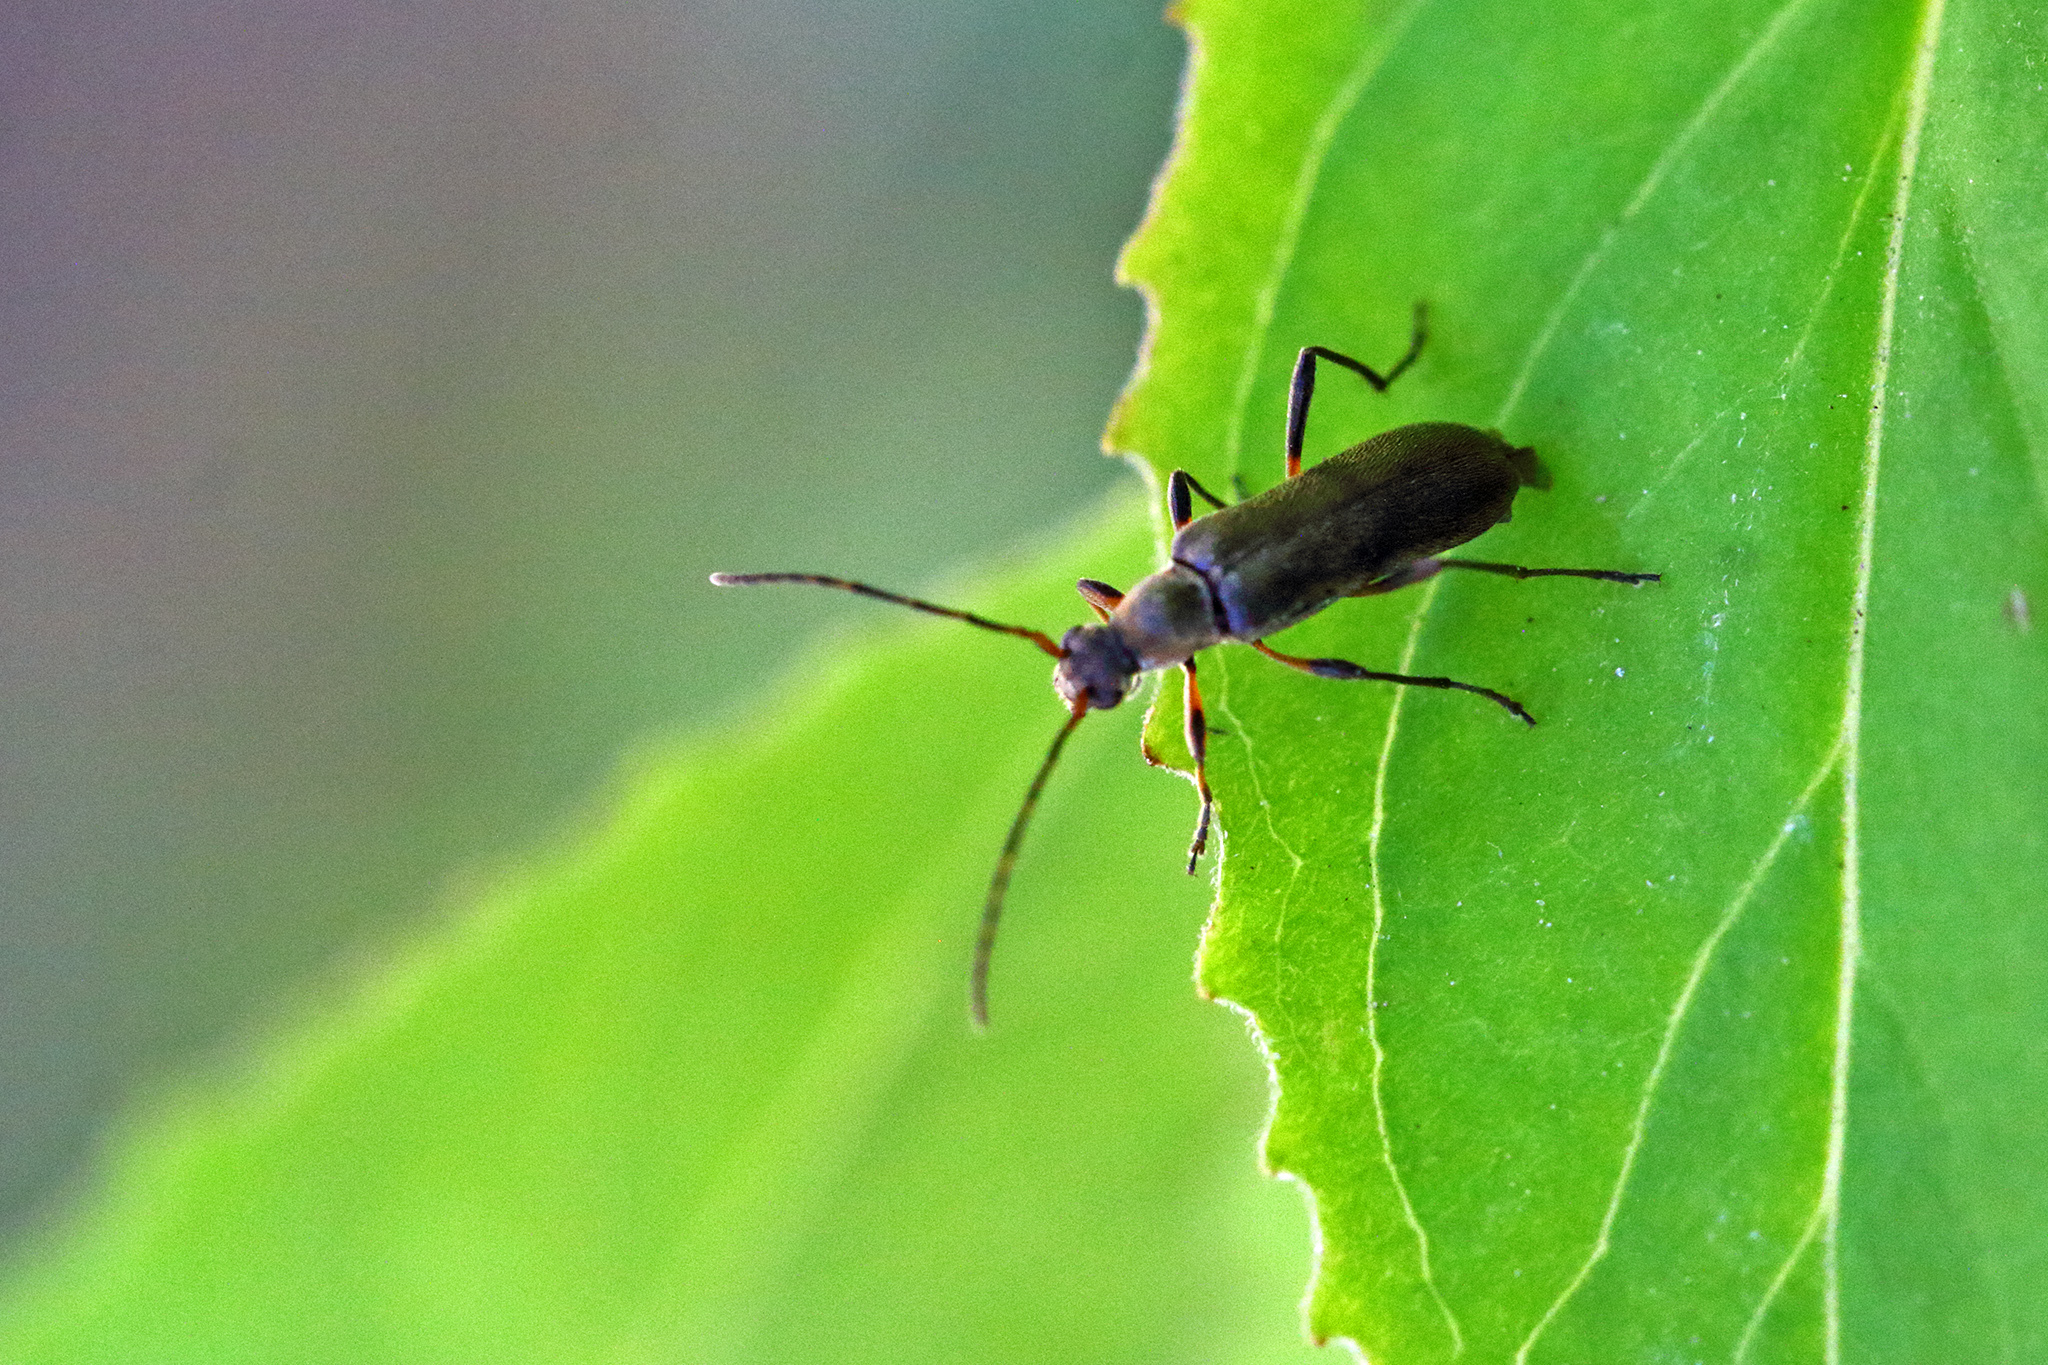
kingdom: Animalia
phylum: Arthropoda
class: Insecta
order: Coleoptera
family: Cerambycidae
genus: Grammoptera
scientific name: Grammoptera ruficornis
